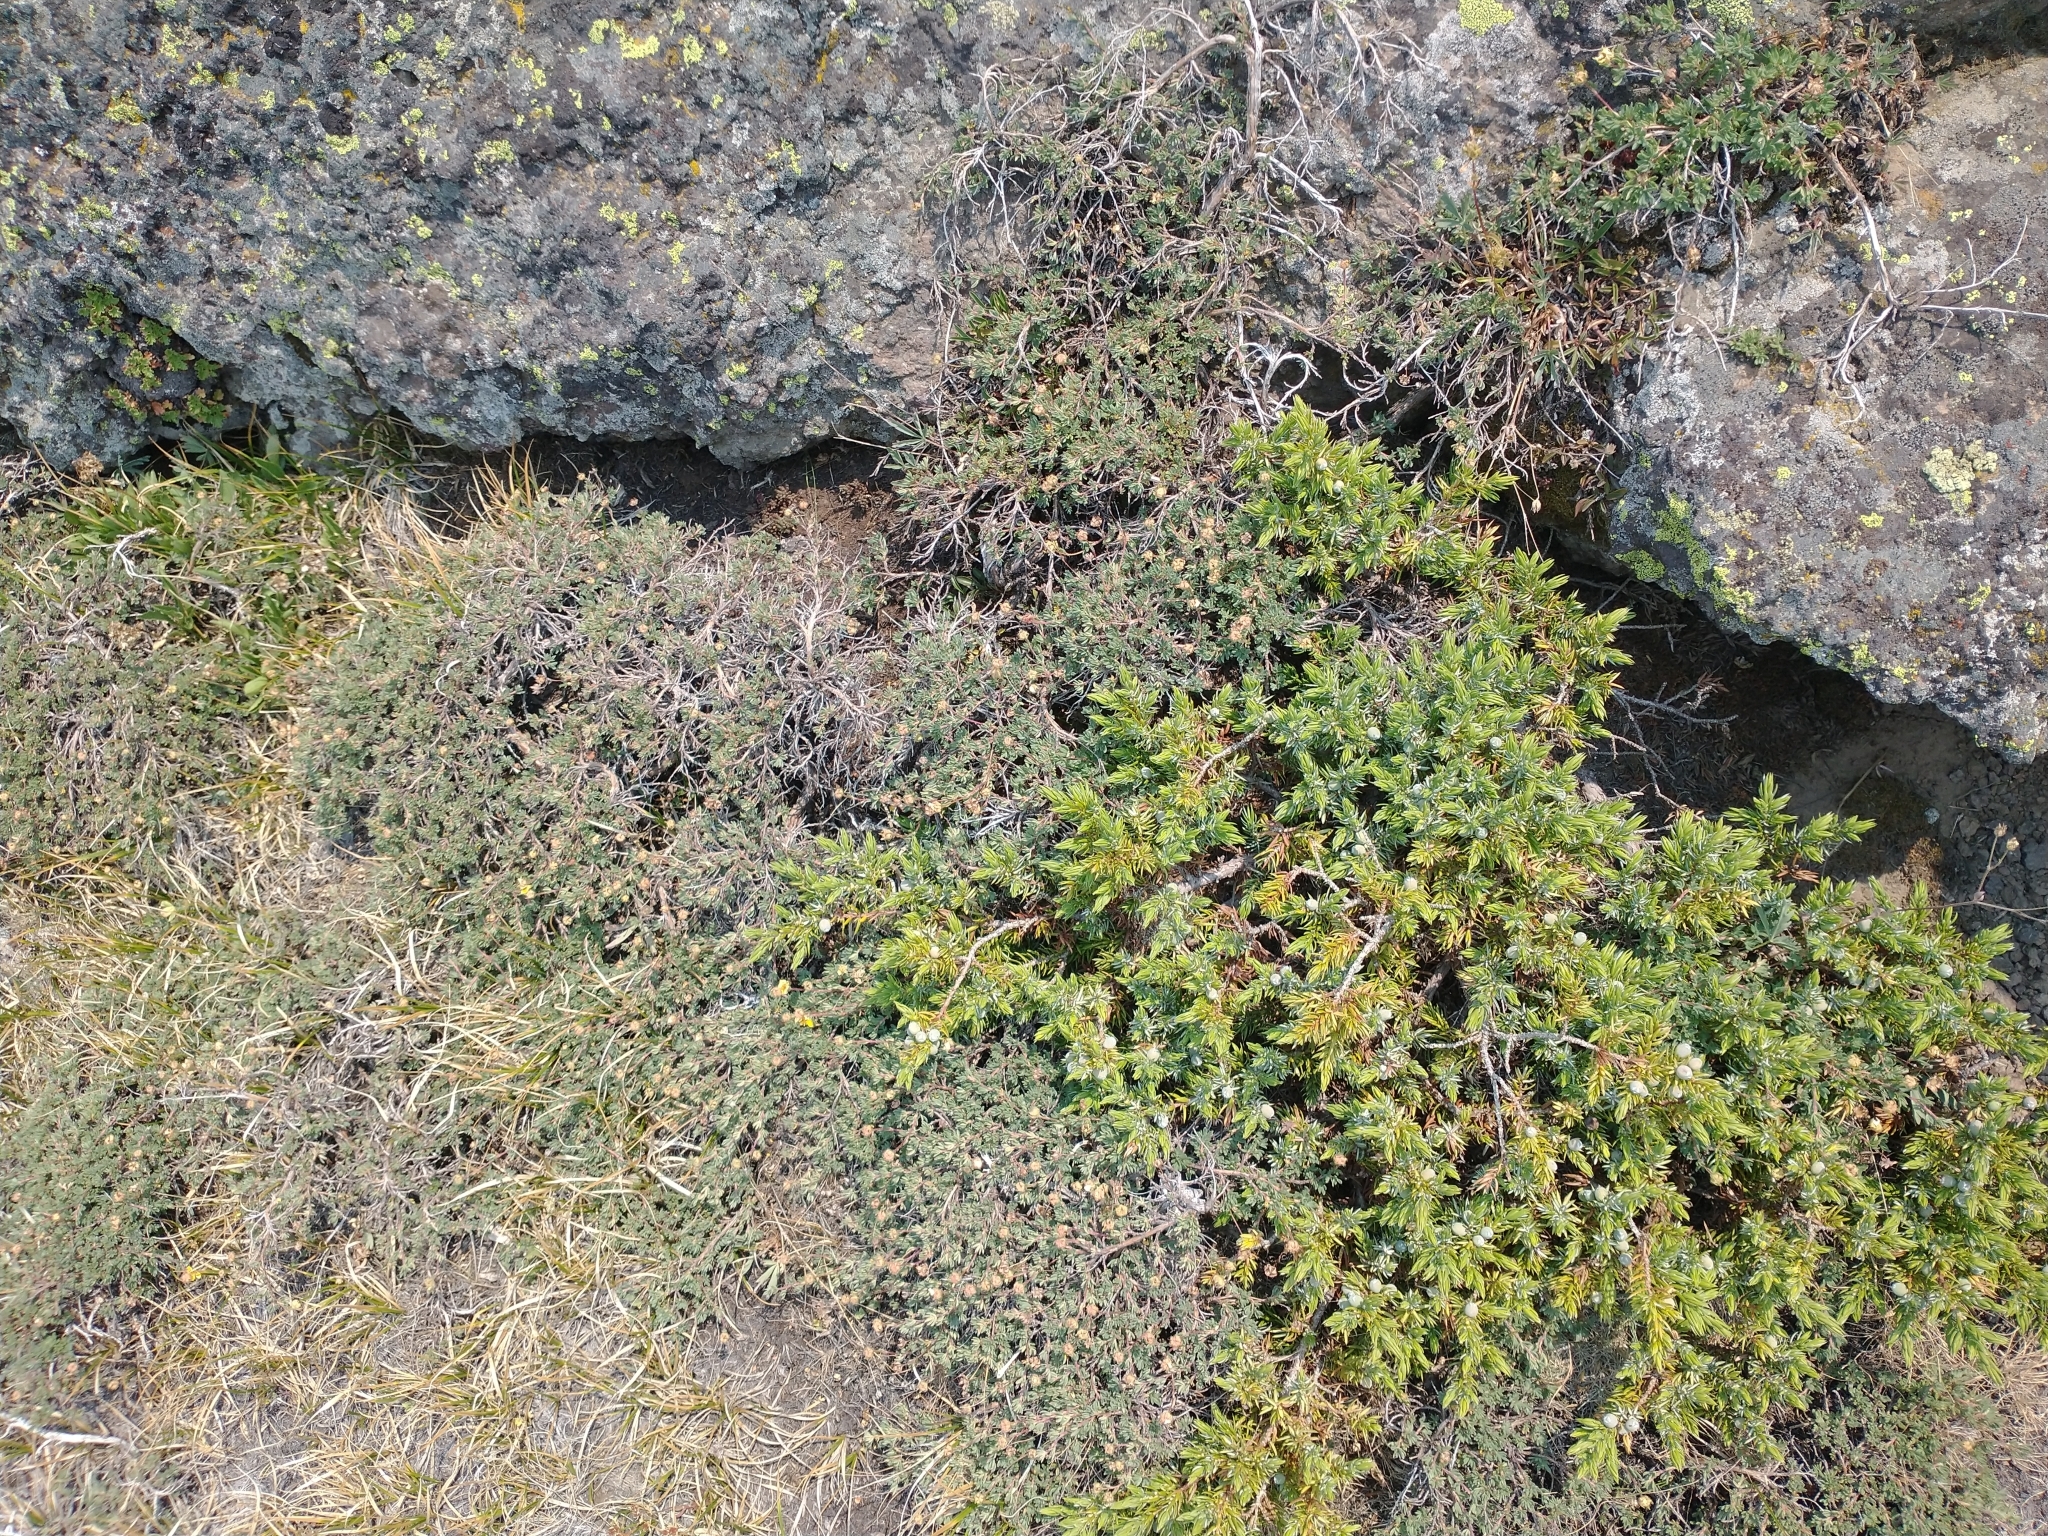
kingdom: Plantae
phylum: Tracheophyta
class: Pinopsida
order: Pinales
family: Cupressaceae
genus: Juniperus
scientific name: Juniperus communis
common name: Common juniper
